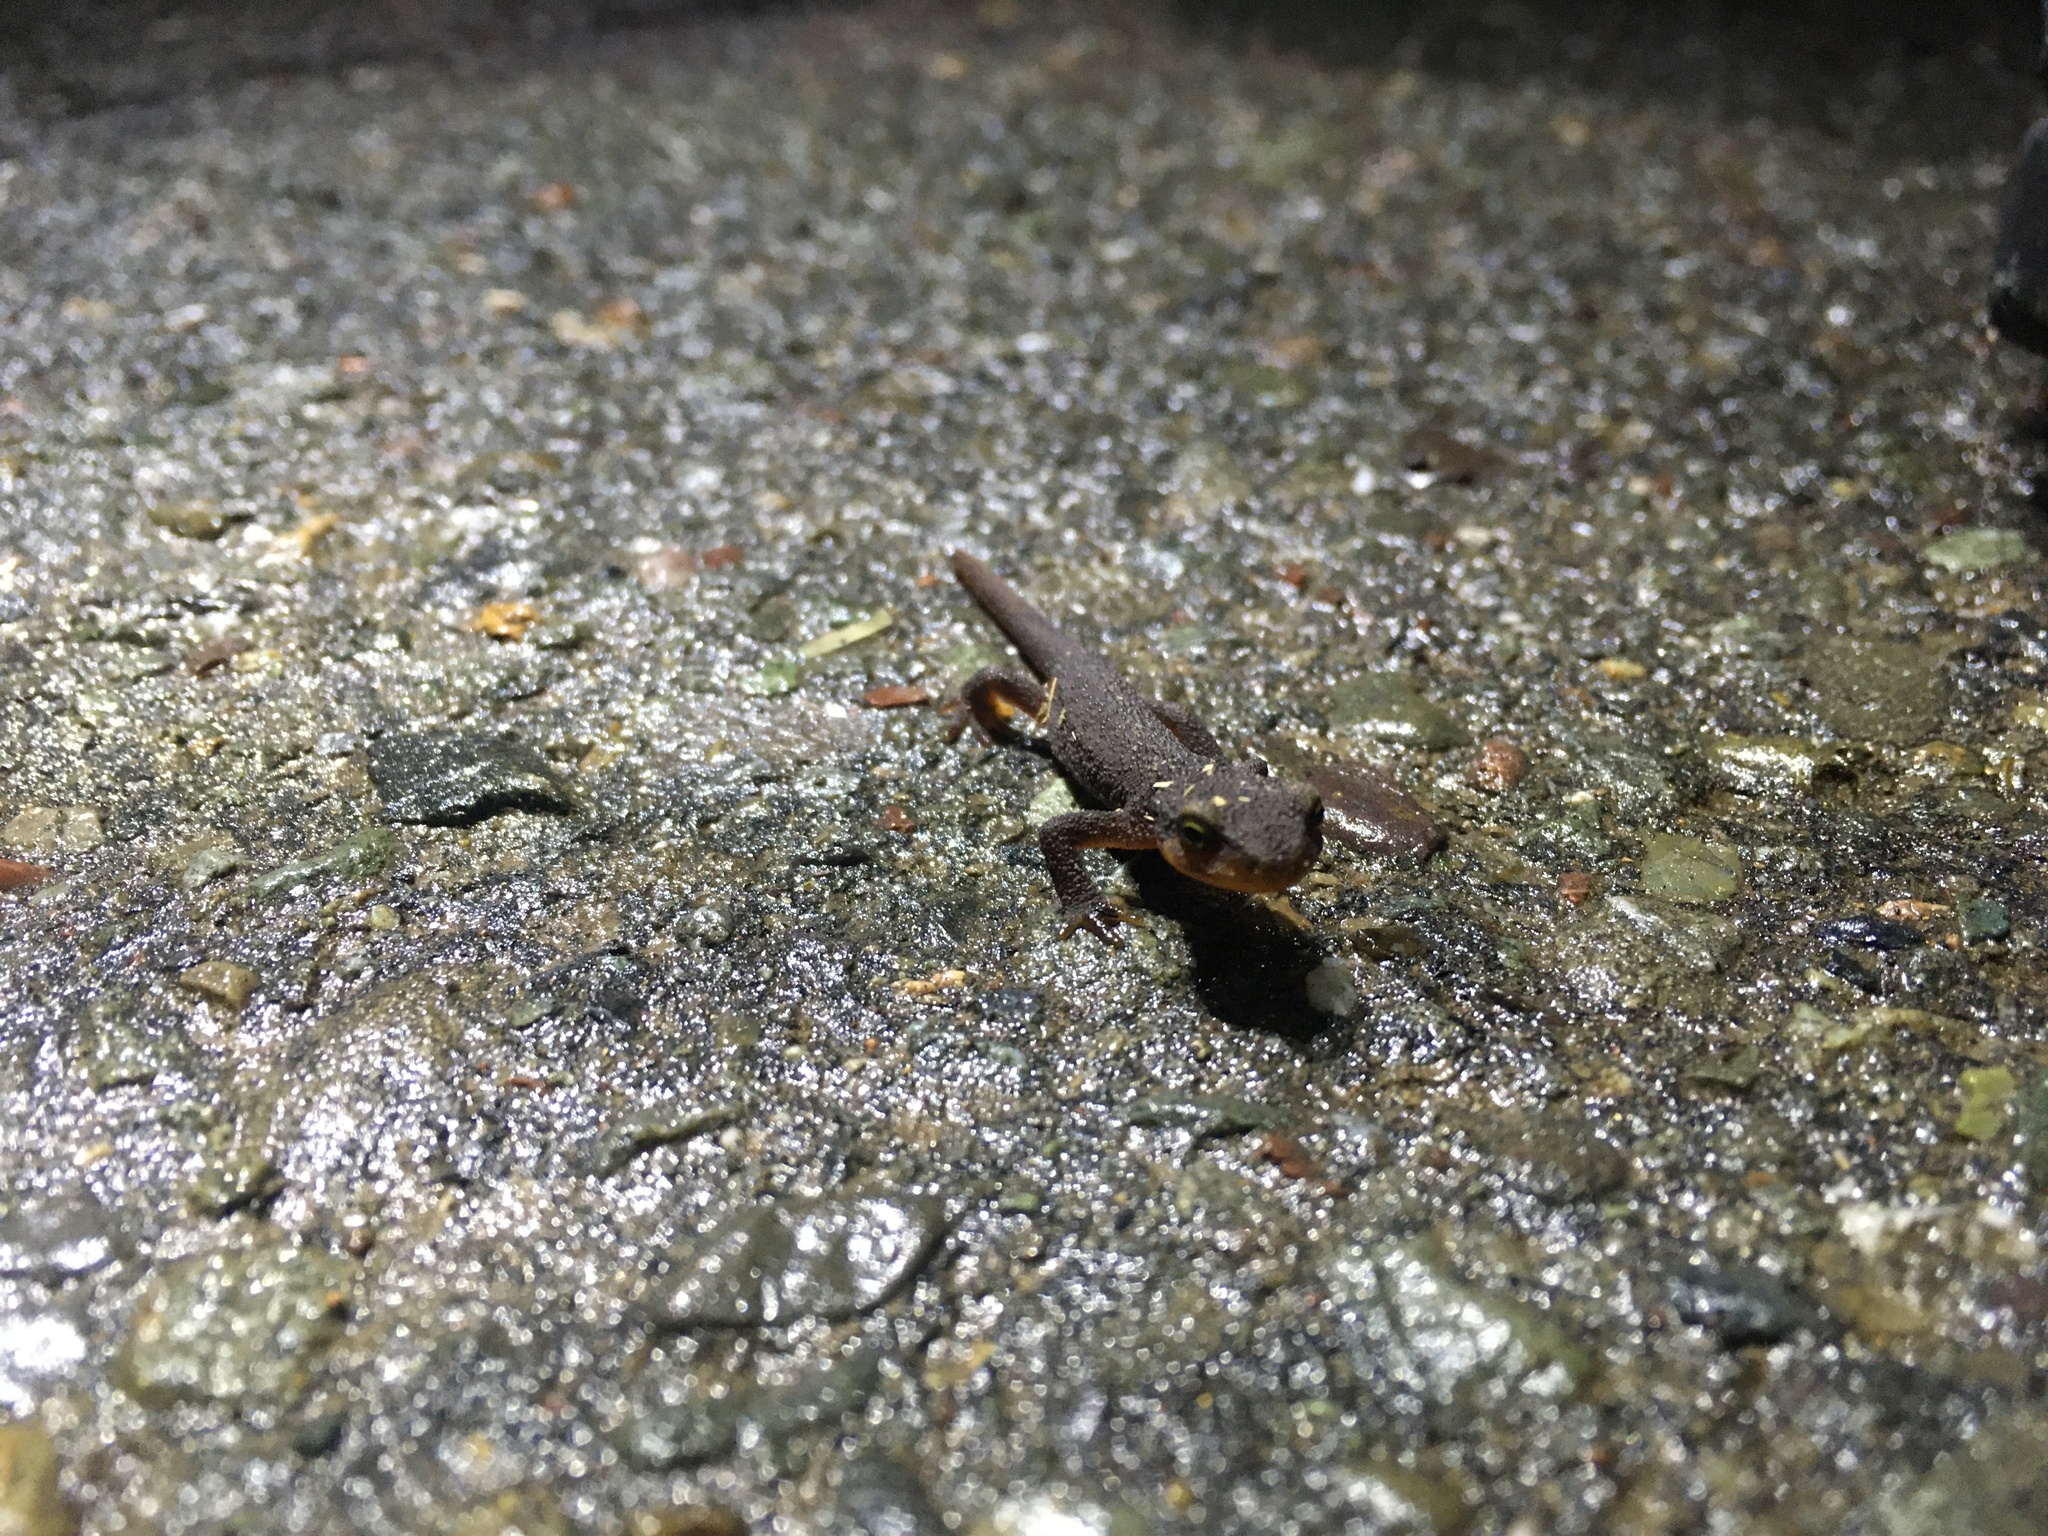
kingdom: Animalia
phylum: Chordata
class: Amphibia
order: Caudata
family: Salamandridae
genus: Taricha
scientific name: Taricha torosa
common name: California newt
